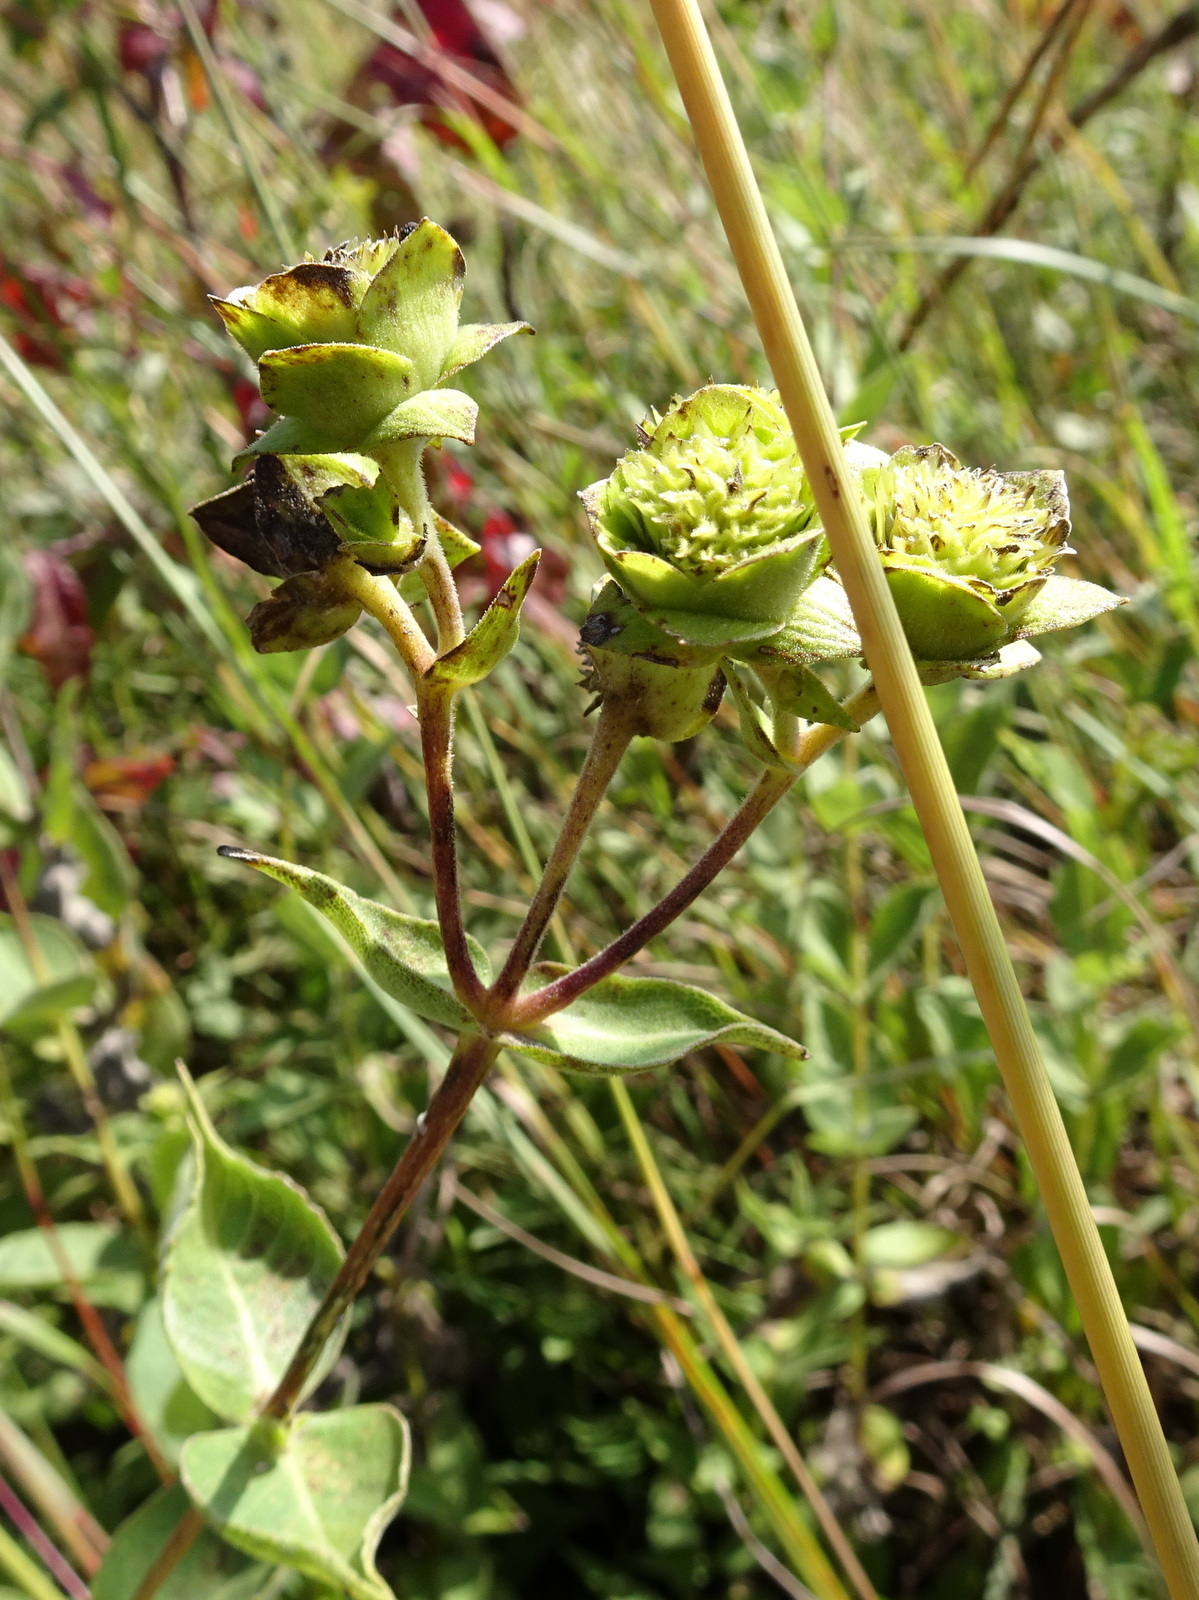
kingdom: Plantae
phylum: Tracheophyta
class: Magnoliopsida
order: Asterales
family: Asteraceae
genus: Silphium
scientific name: Silphium integrifolium
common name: Whole-leaf rosinweed
